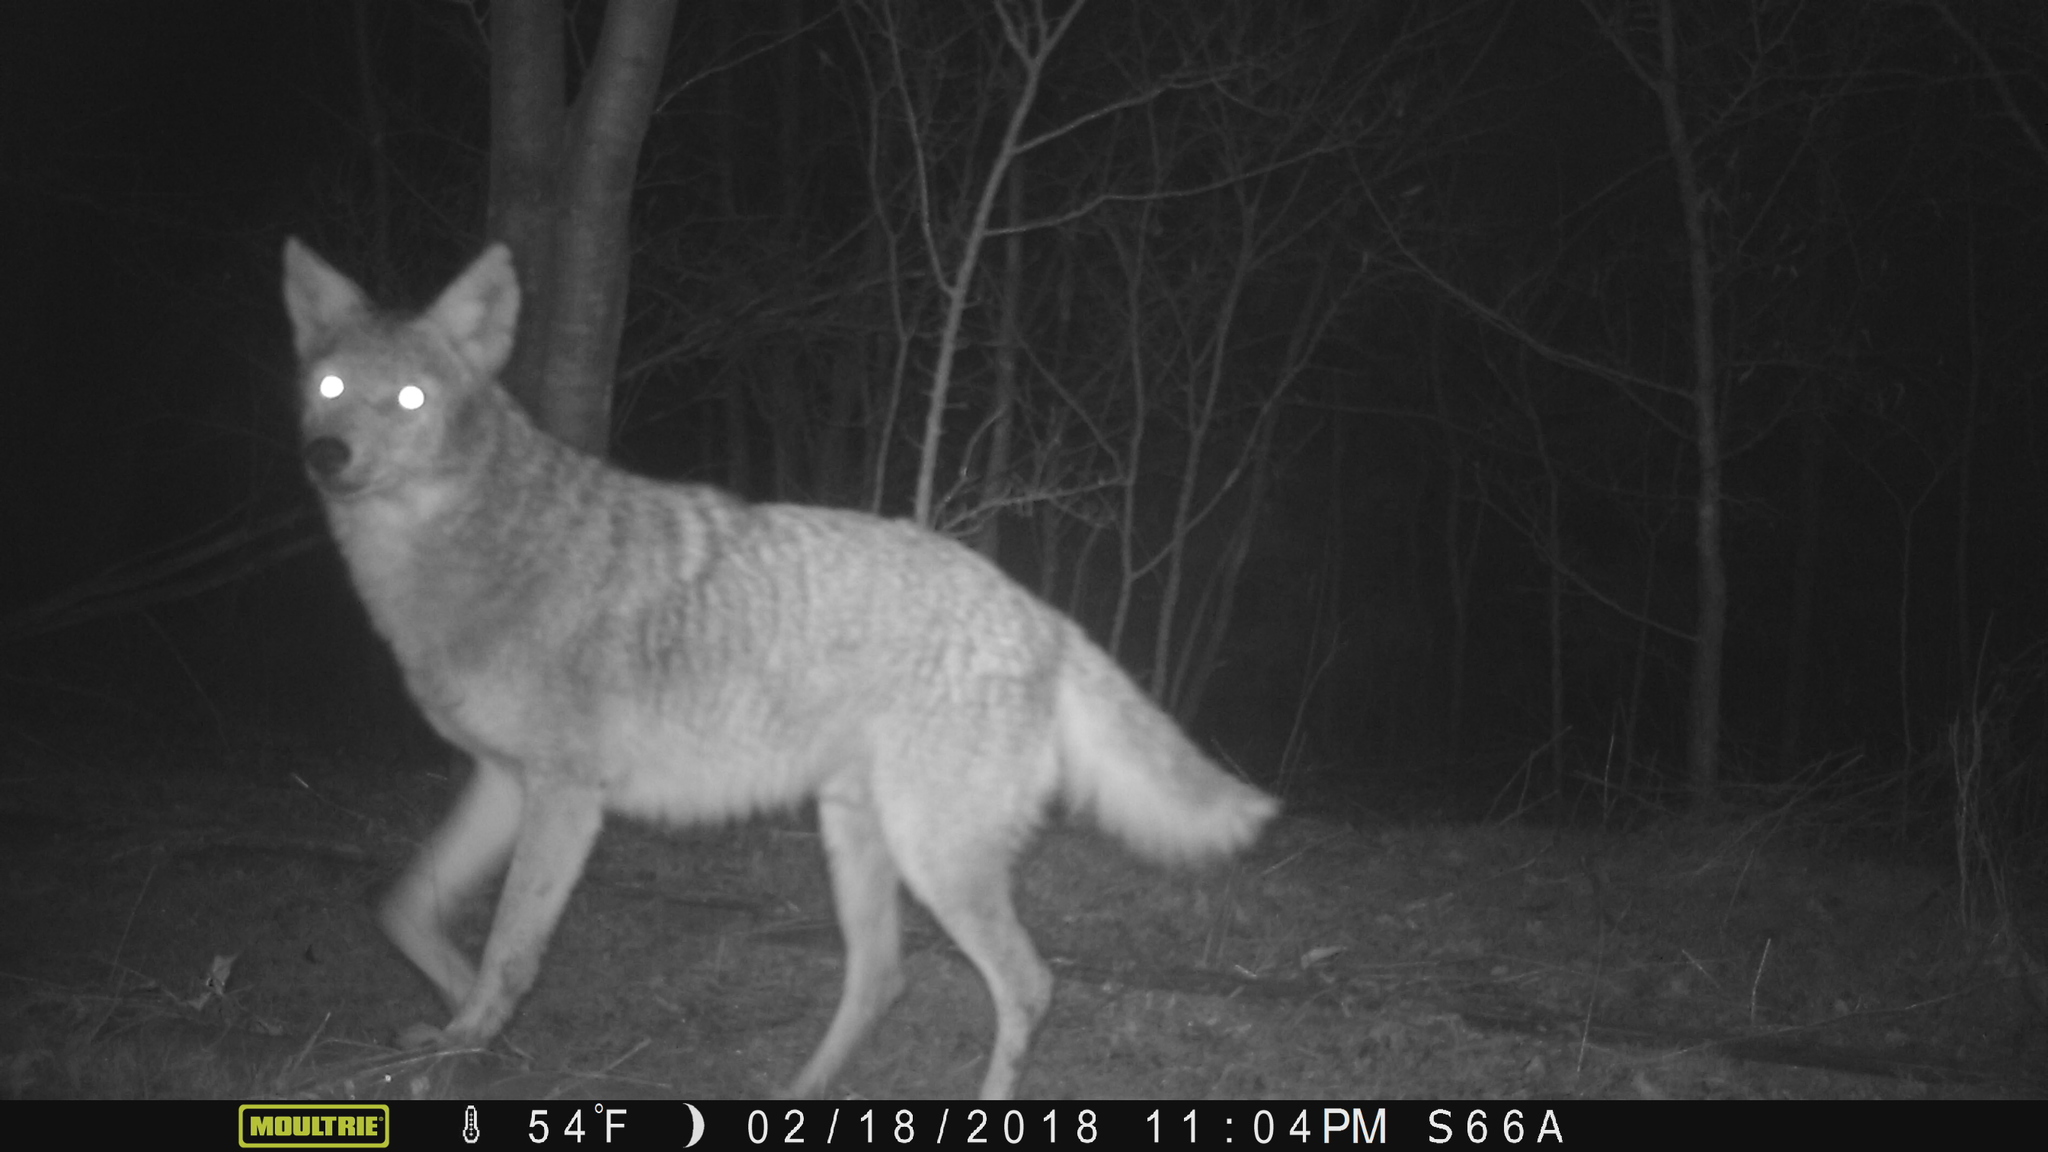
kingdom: Animalia
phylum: Chordata
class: Mammalia
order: Carnivora
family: Canidae
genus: Canis
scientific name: Canis latrans
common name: Coyote
